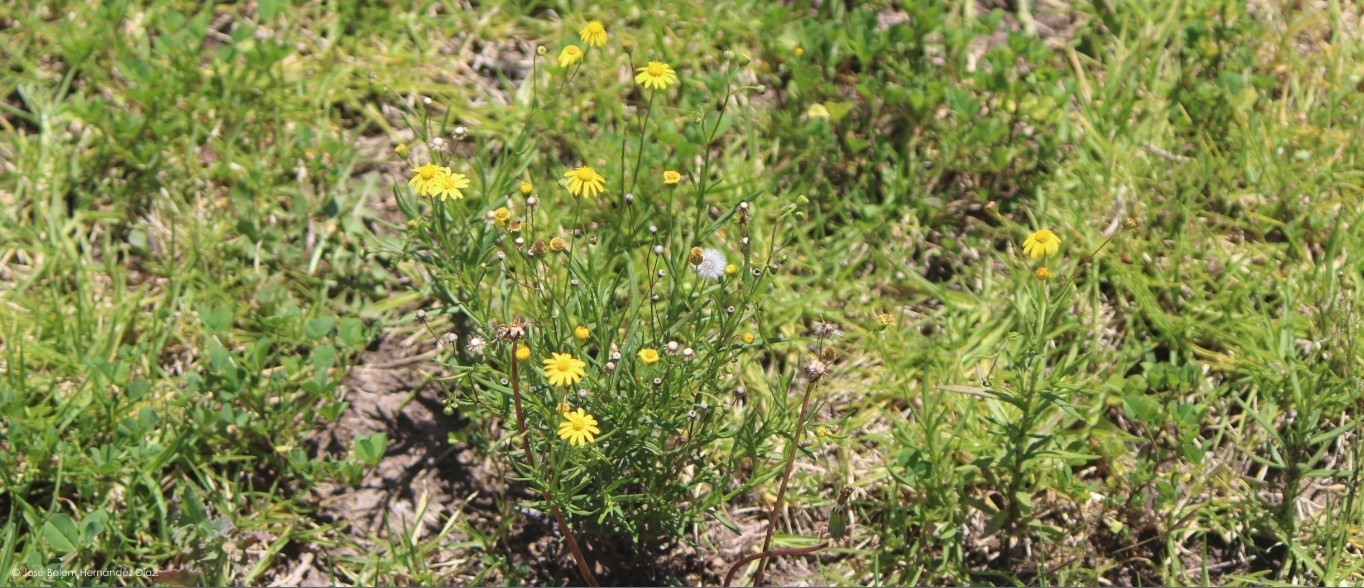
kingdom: Plantae
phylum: Tracheophyta
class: Magnoliopsida
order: Asterales
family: Asteraceae
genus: Senecio
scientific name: Senecio inaequidens
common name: Narrow-leaved ragwort
